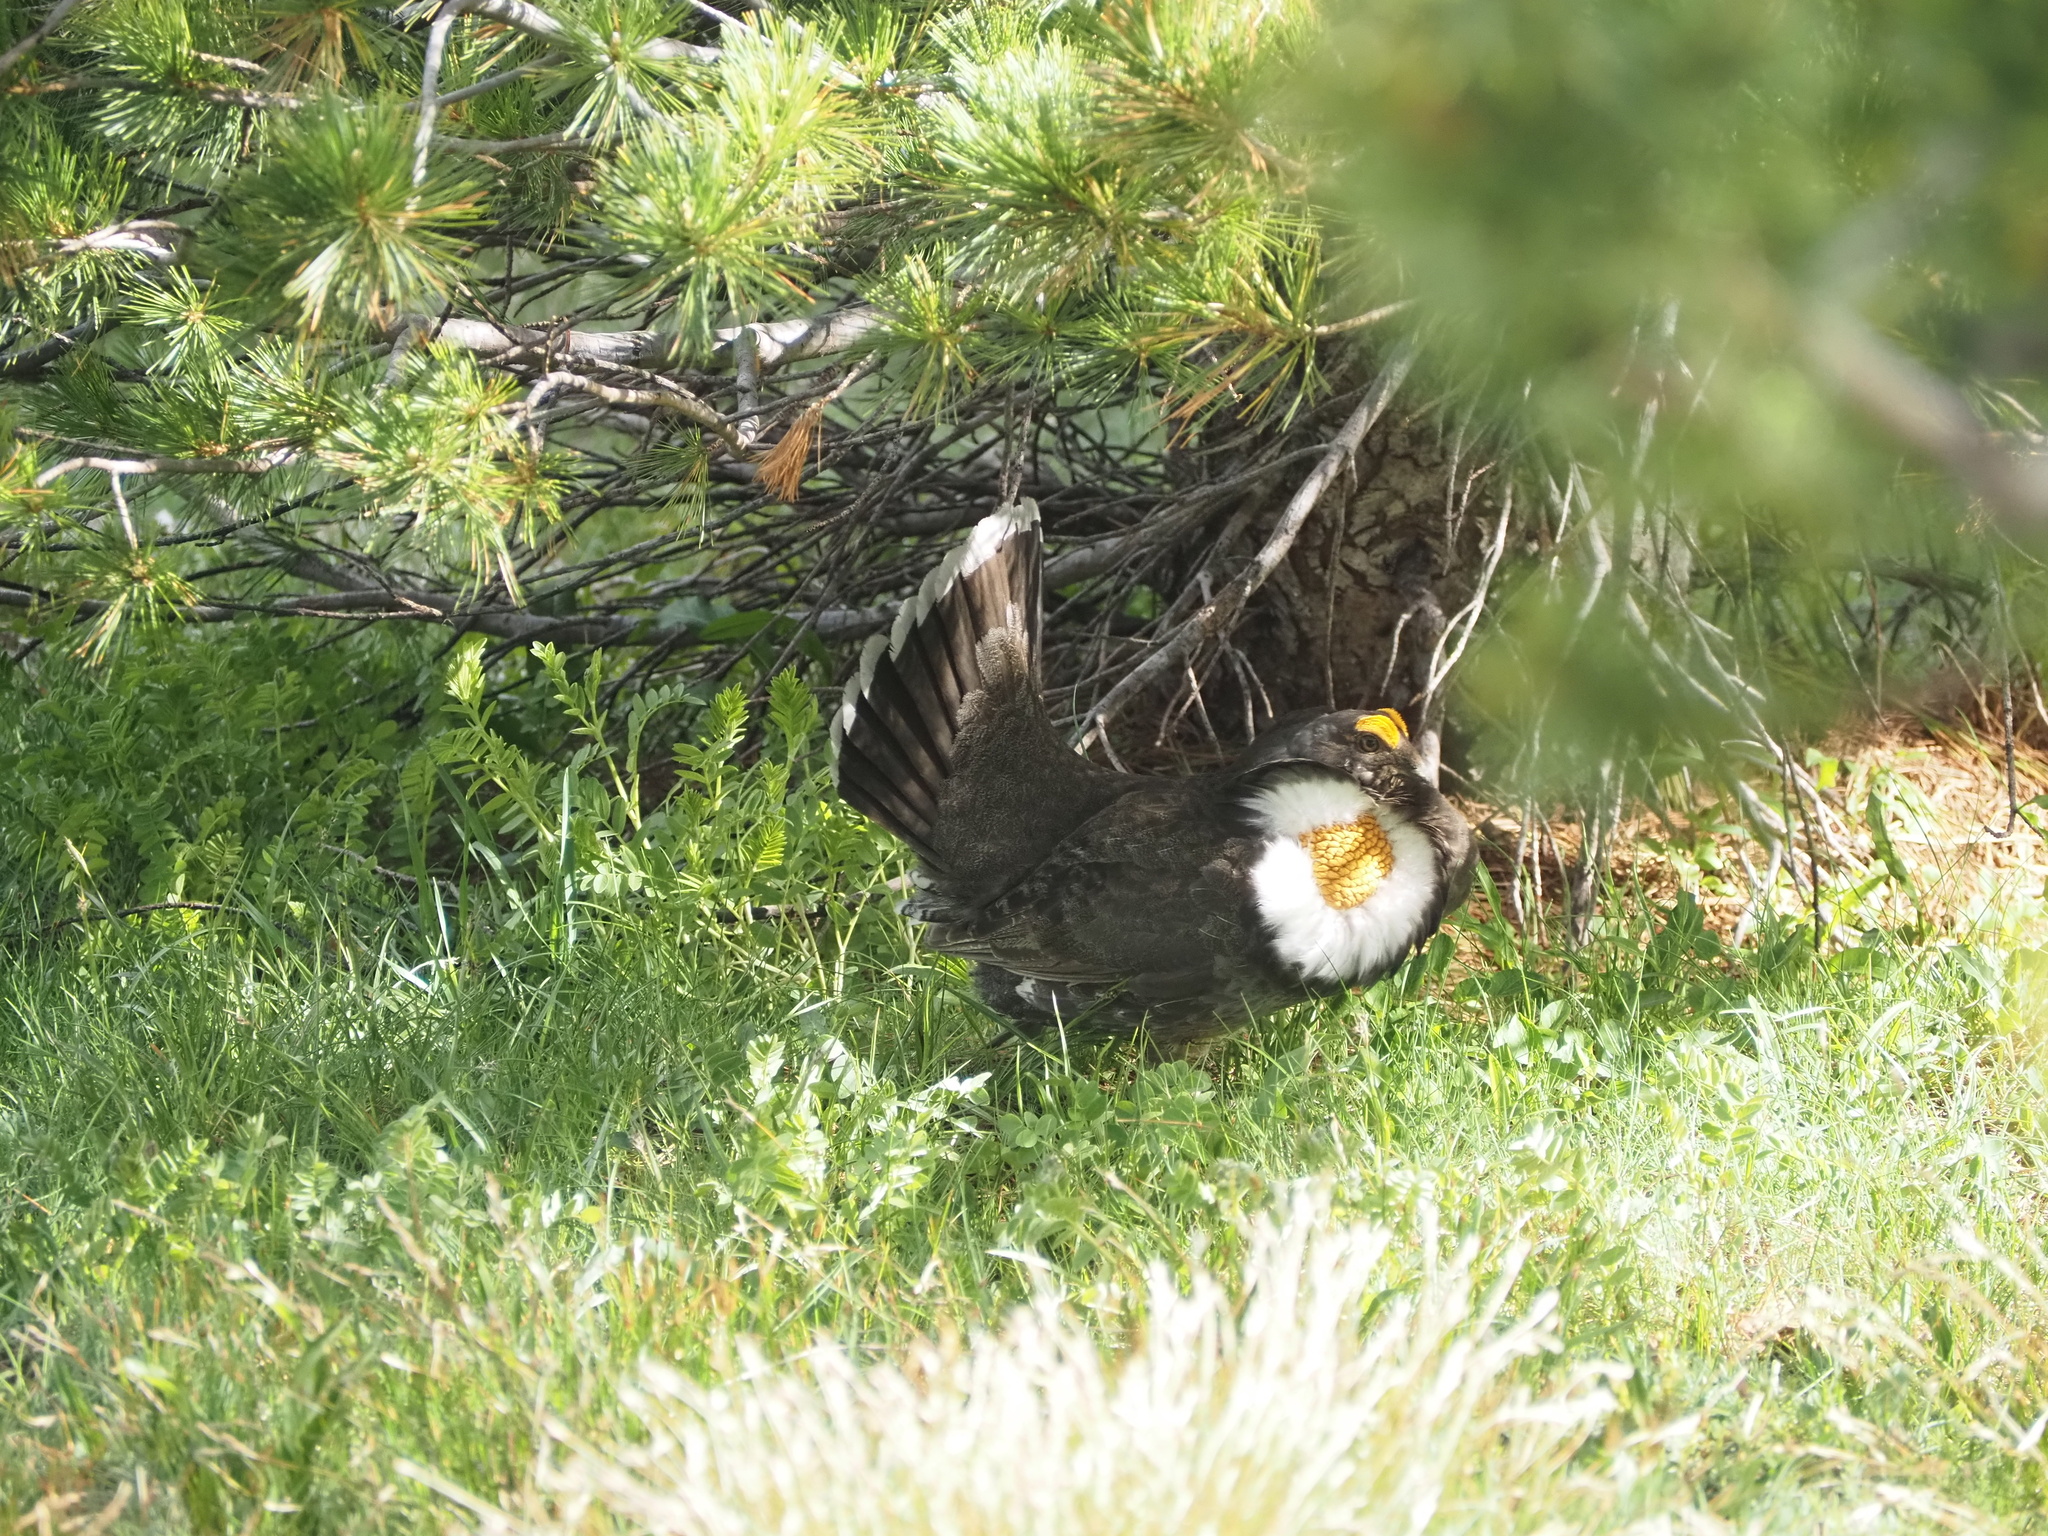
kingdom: Animalia
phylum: Chordata
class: Aves
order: Galliformes
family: Phasianidae
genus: Dendragapus
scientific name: Dendragapus fuliginosus
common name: Sooty grouse
